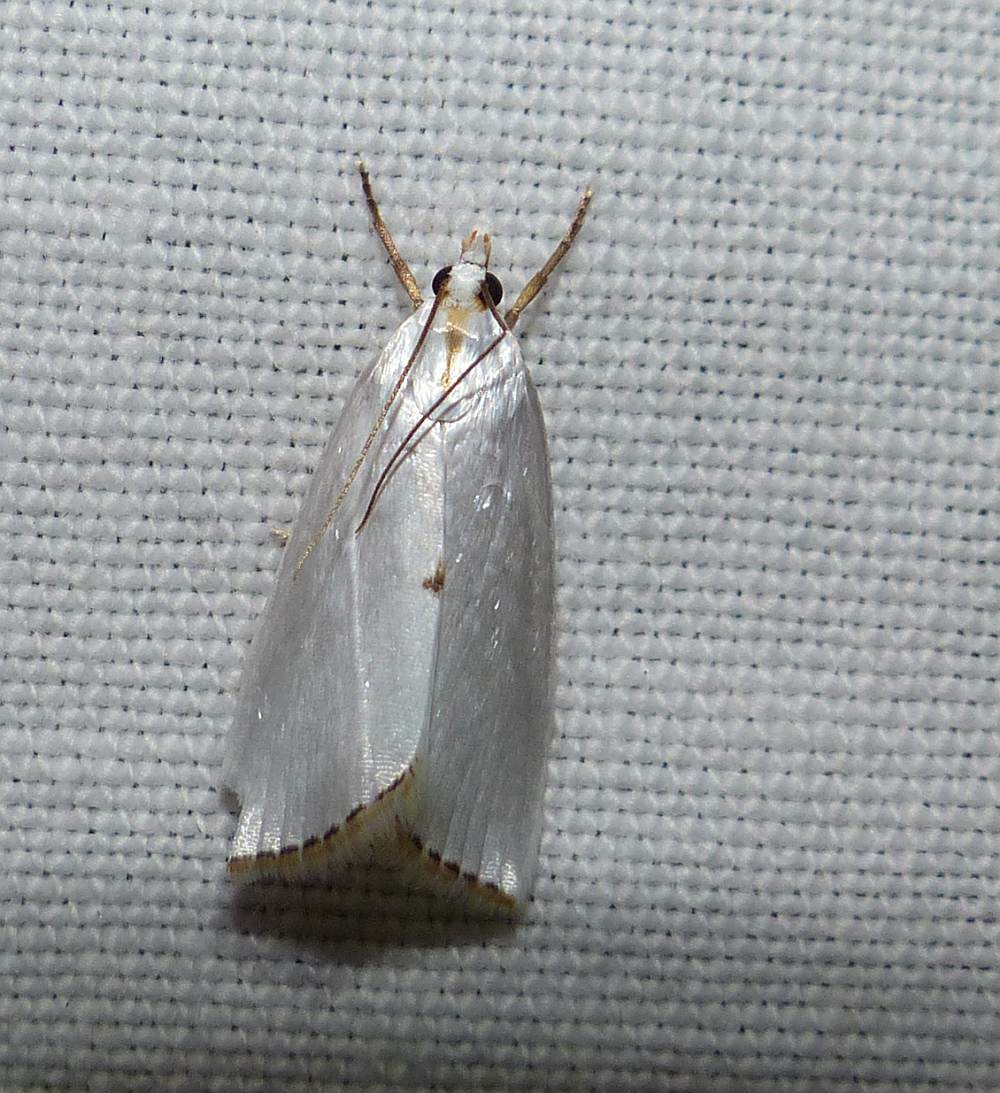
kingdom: Animalia
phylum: Arthropoda
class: Insecta
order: Lepidoptera
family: Crambidae
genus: Argyria
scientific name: Argyria nivalis
